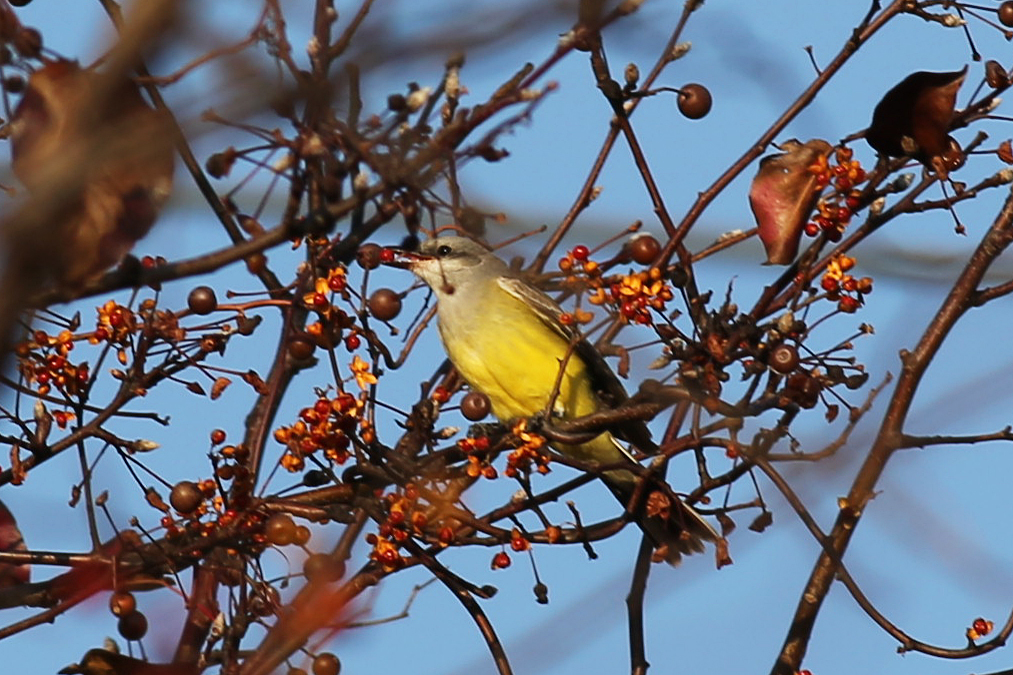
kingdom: Animalia
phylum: Chordata
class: Aves
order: Passeriformes
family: Tyrannidae
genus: Tyrannus
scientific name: Tyrannus verticalis
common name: Western kingbird
